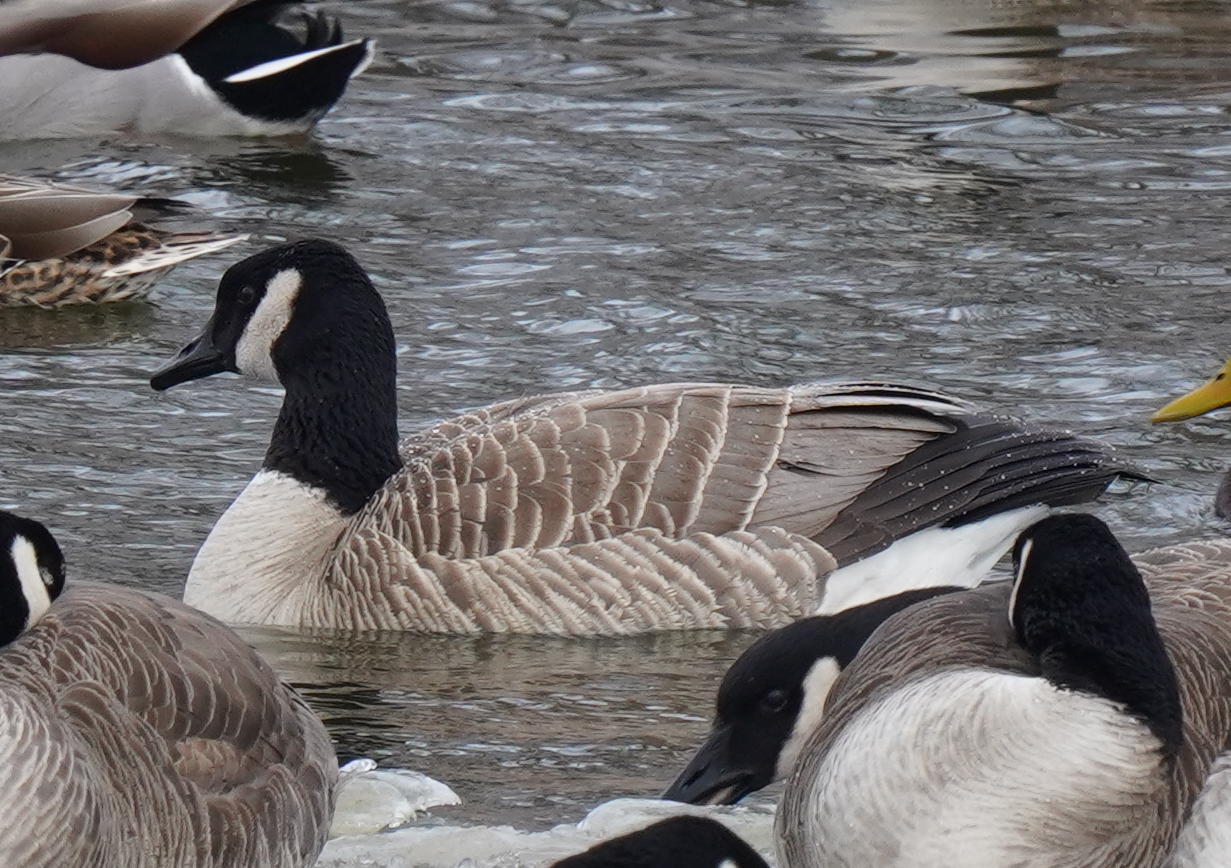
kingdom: Animalia
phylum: Chordata
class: Aves
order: Anseriformes
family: Anatidae
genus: Branta
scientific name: Branta canadensis
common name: Canada goose
